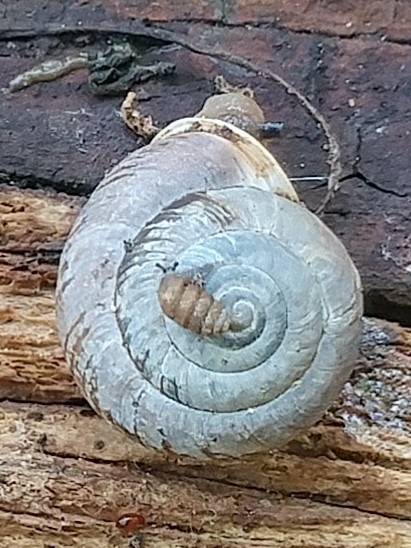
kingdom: Animalia
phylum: Mollusca
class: Gastropoda
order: Stylommatophora
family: Polygyridae
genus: Ashmunella
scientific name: Ashmunella rhyssa
